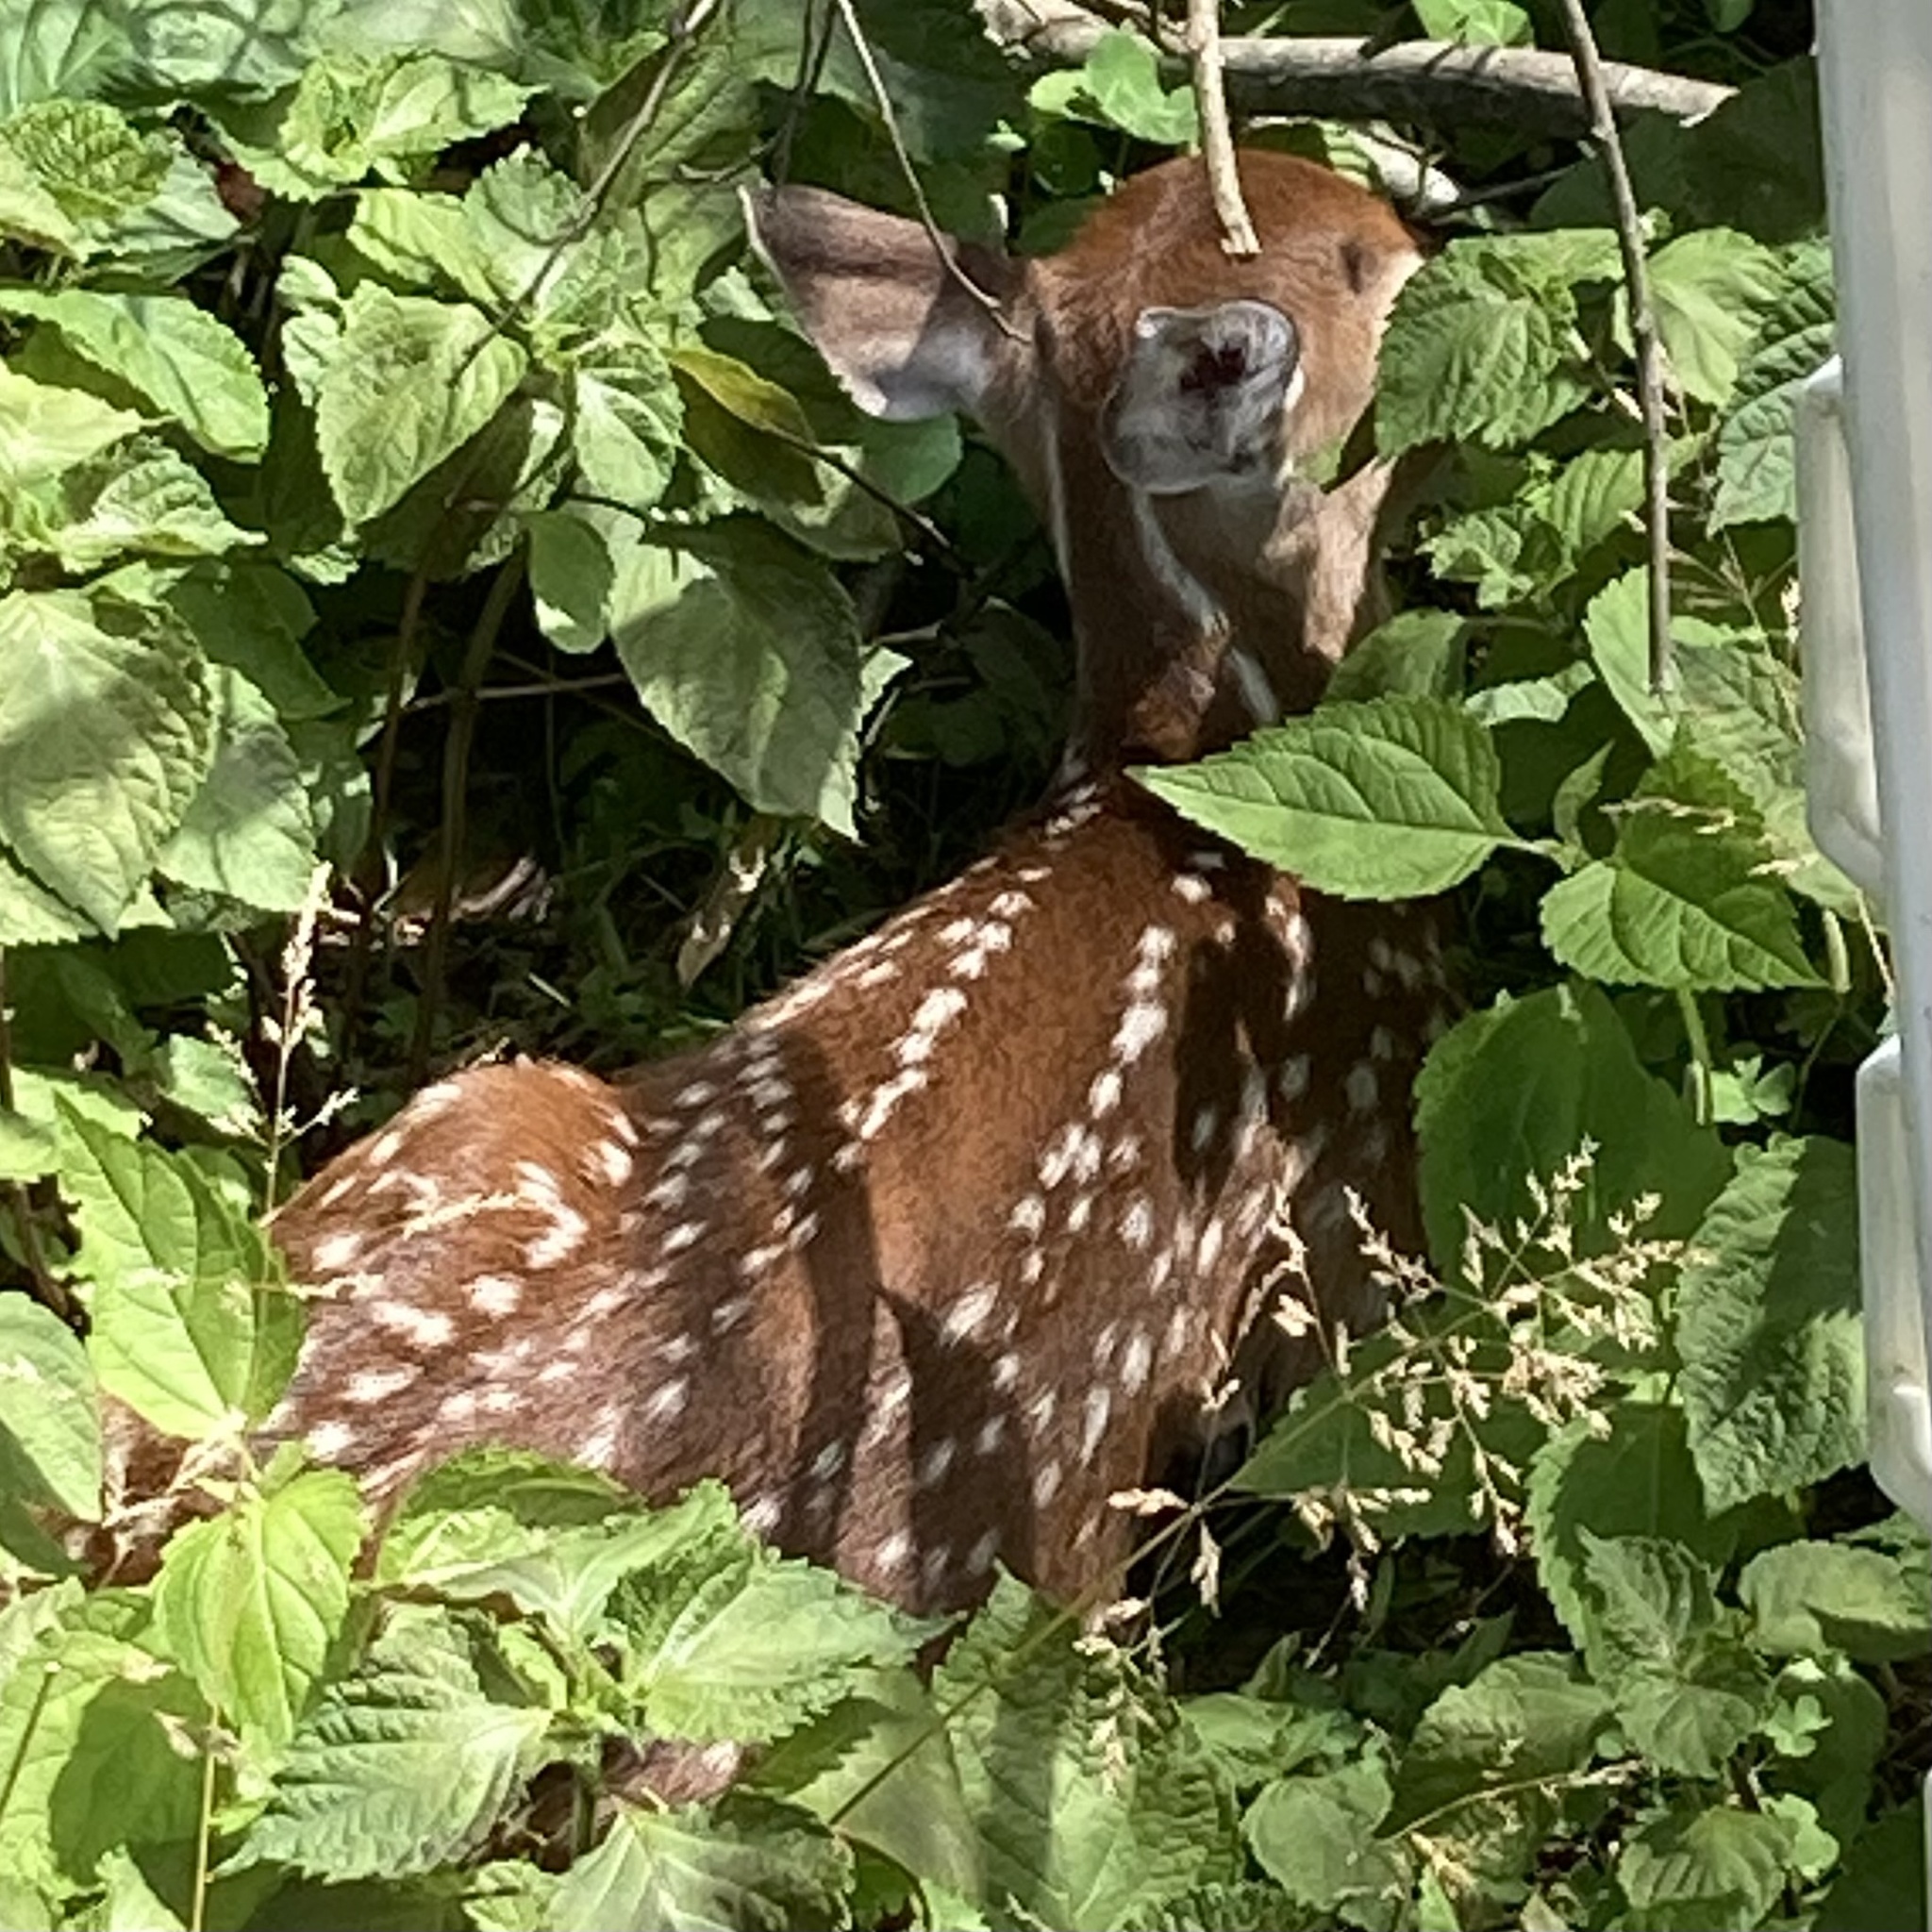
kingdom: Animalia
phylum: Chordata
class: Mammalia
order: Artiodactyla
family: Cervidae
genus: Odocoileus
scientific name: Odocoileus virginianus
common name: White-tailed deer
